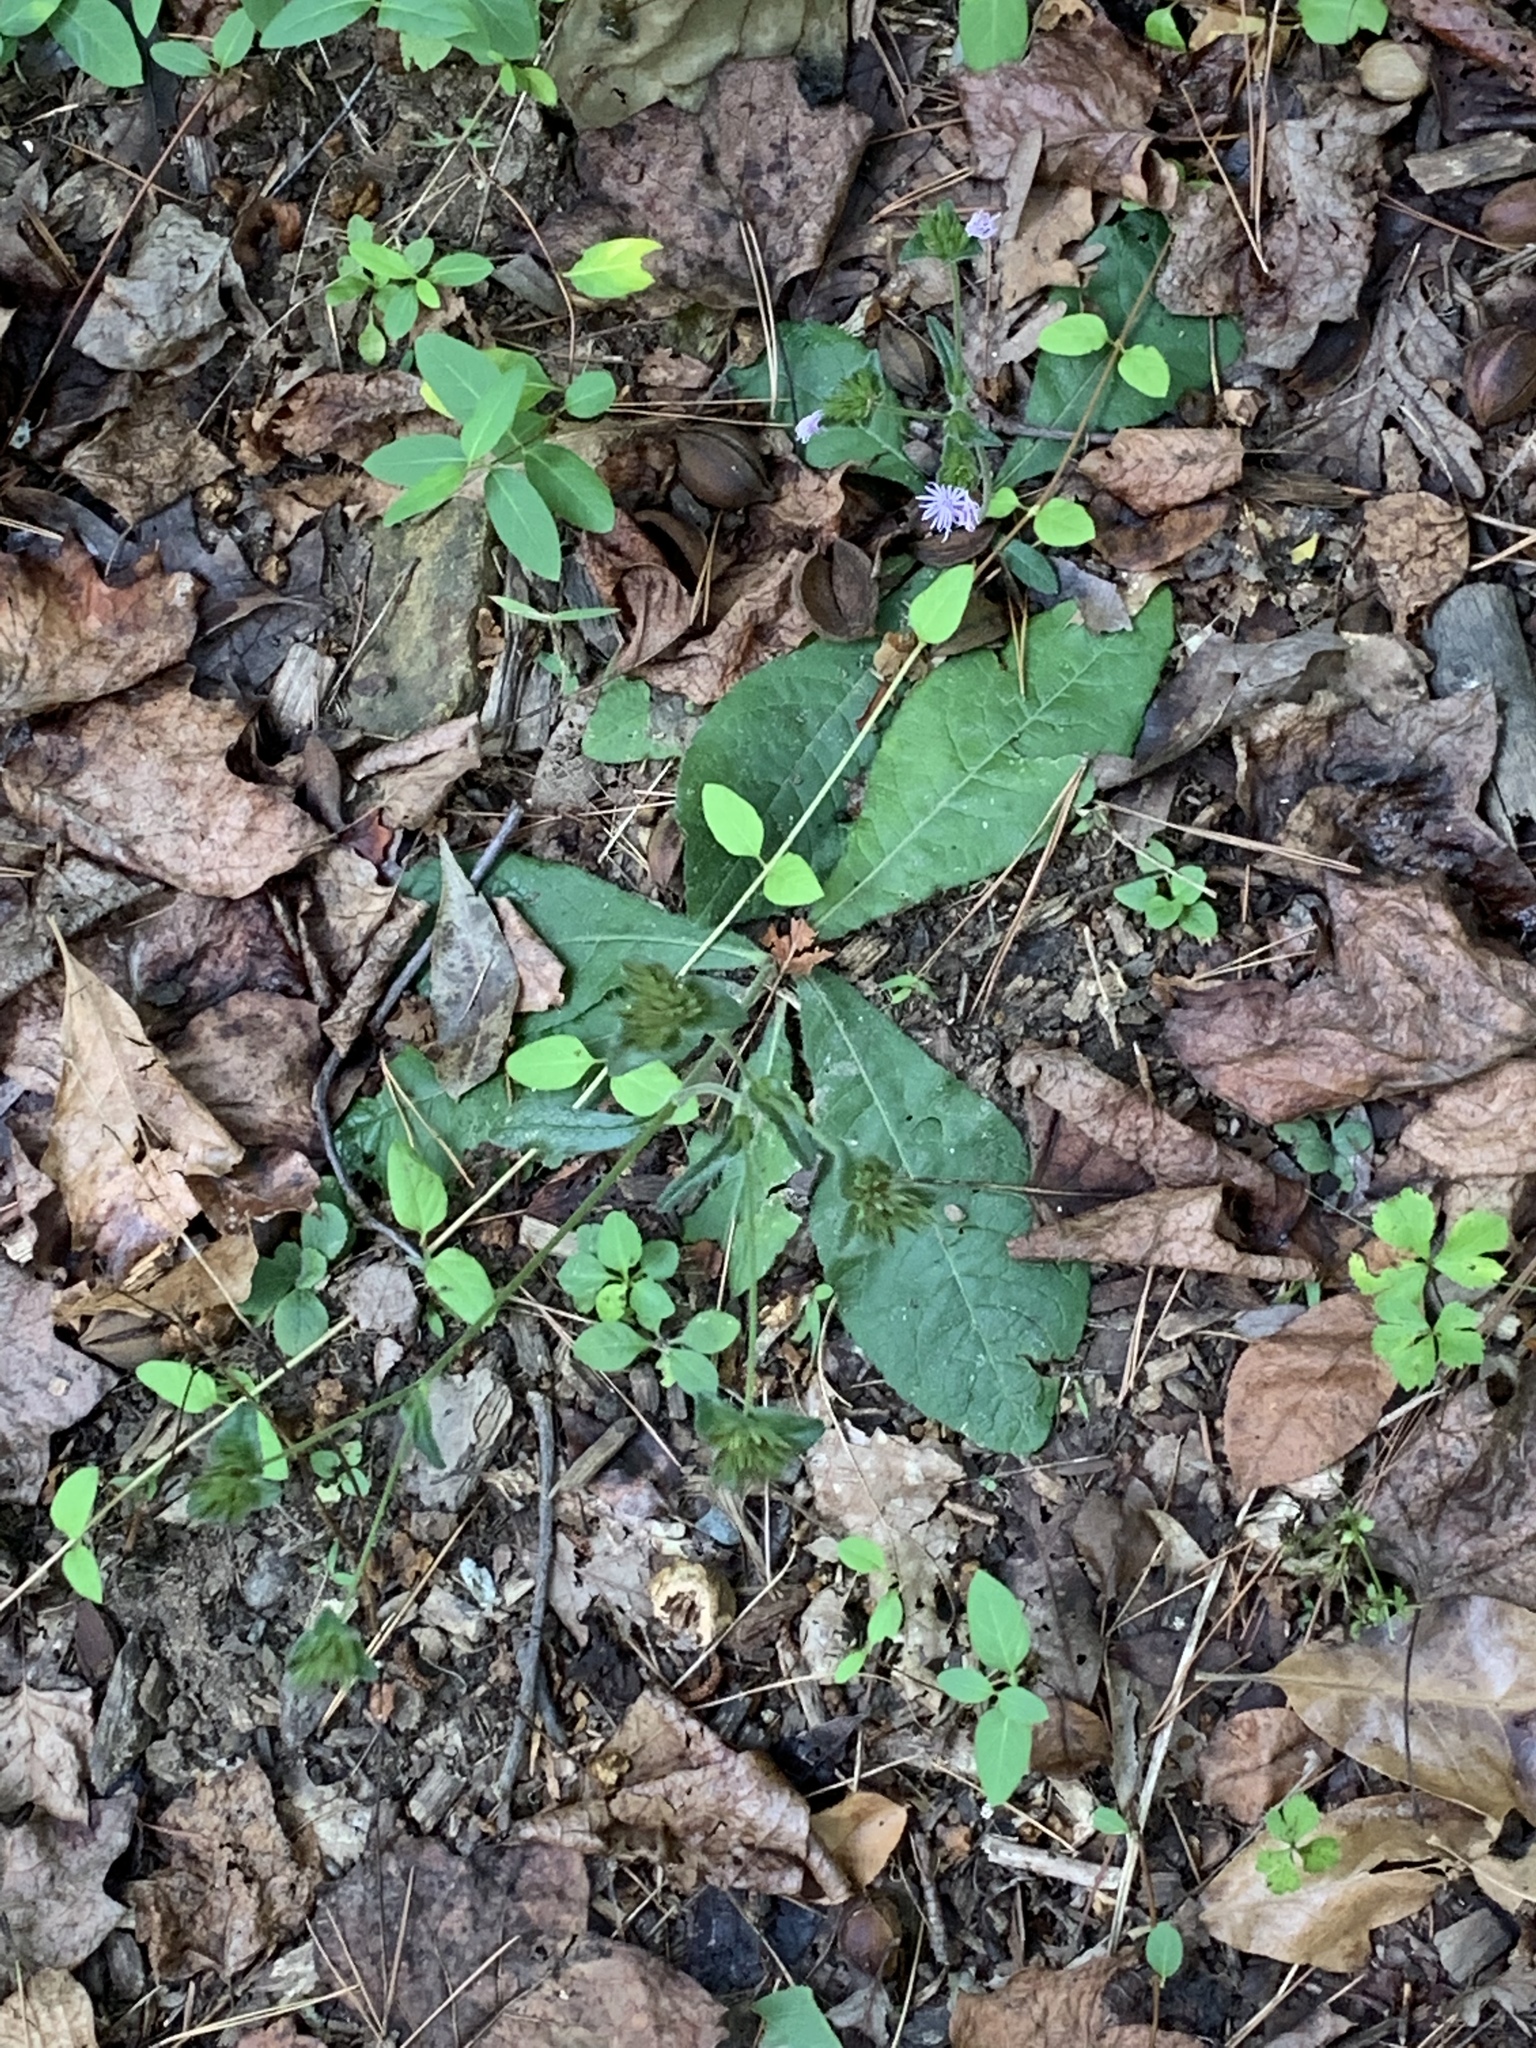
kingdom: Plantae
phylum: Tracheophyta
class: Magnoliopsida
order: Asterales
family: Asteraceae
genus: Elephantopus
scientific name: Elephantopus tomentosus
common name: Tobacco-weed
